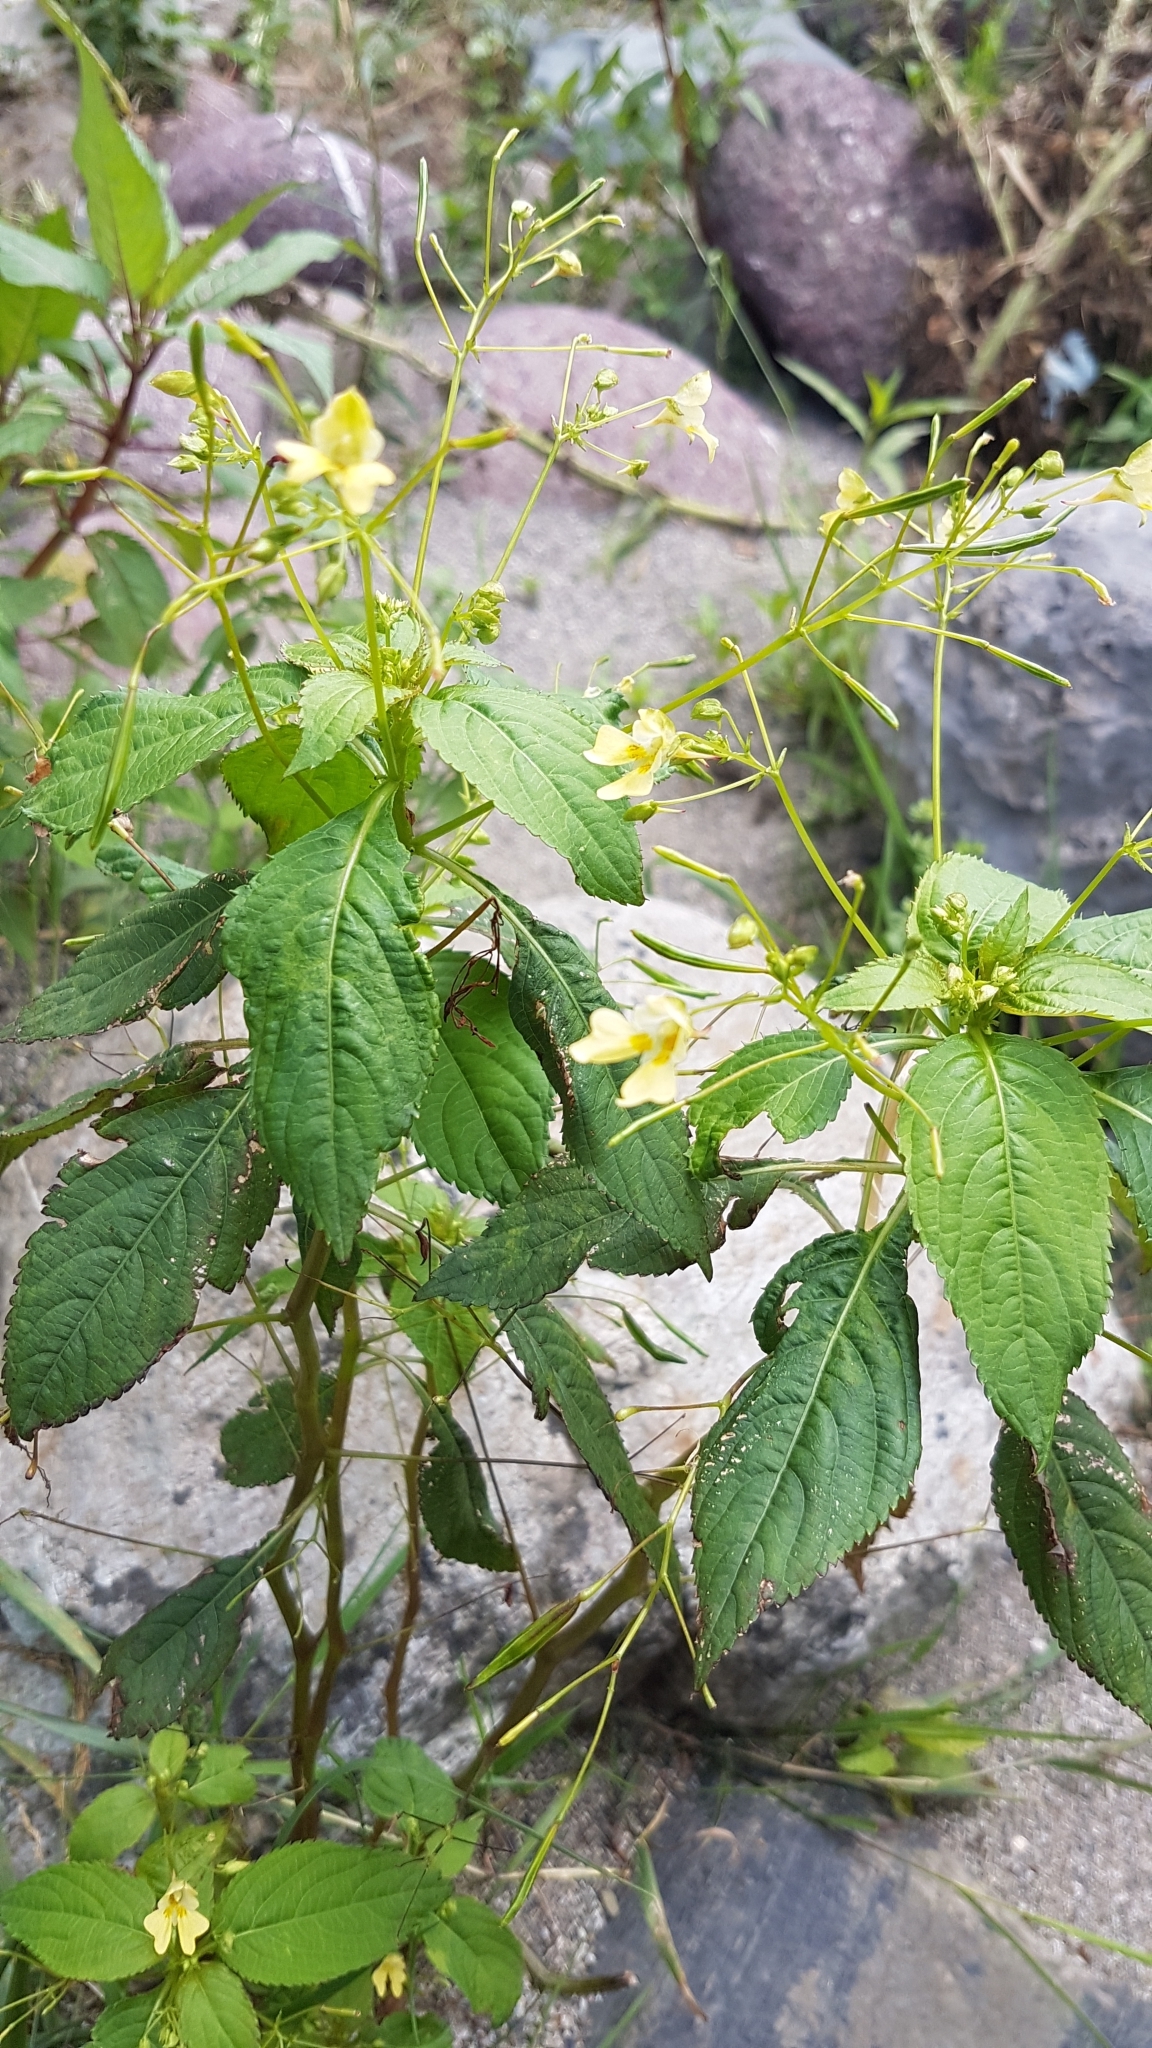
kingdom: Plantae
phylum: Tracheophyta
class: Magnoliopsida
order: Ericales
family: Balsaminaceae
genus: Impatiens
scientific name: Impatiens parviflora
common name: Small balsam
